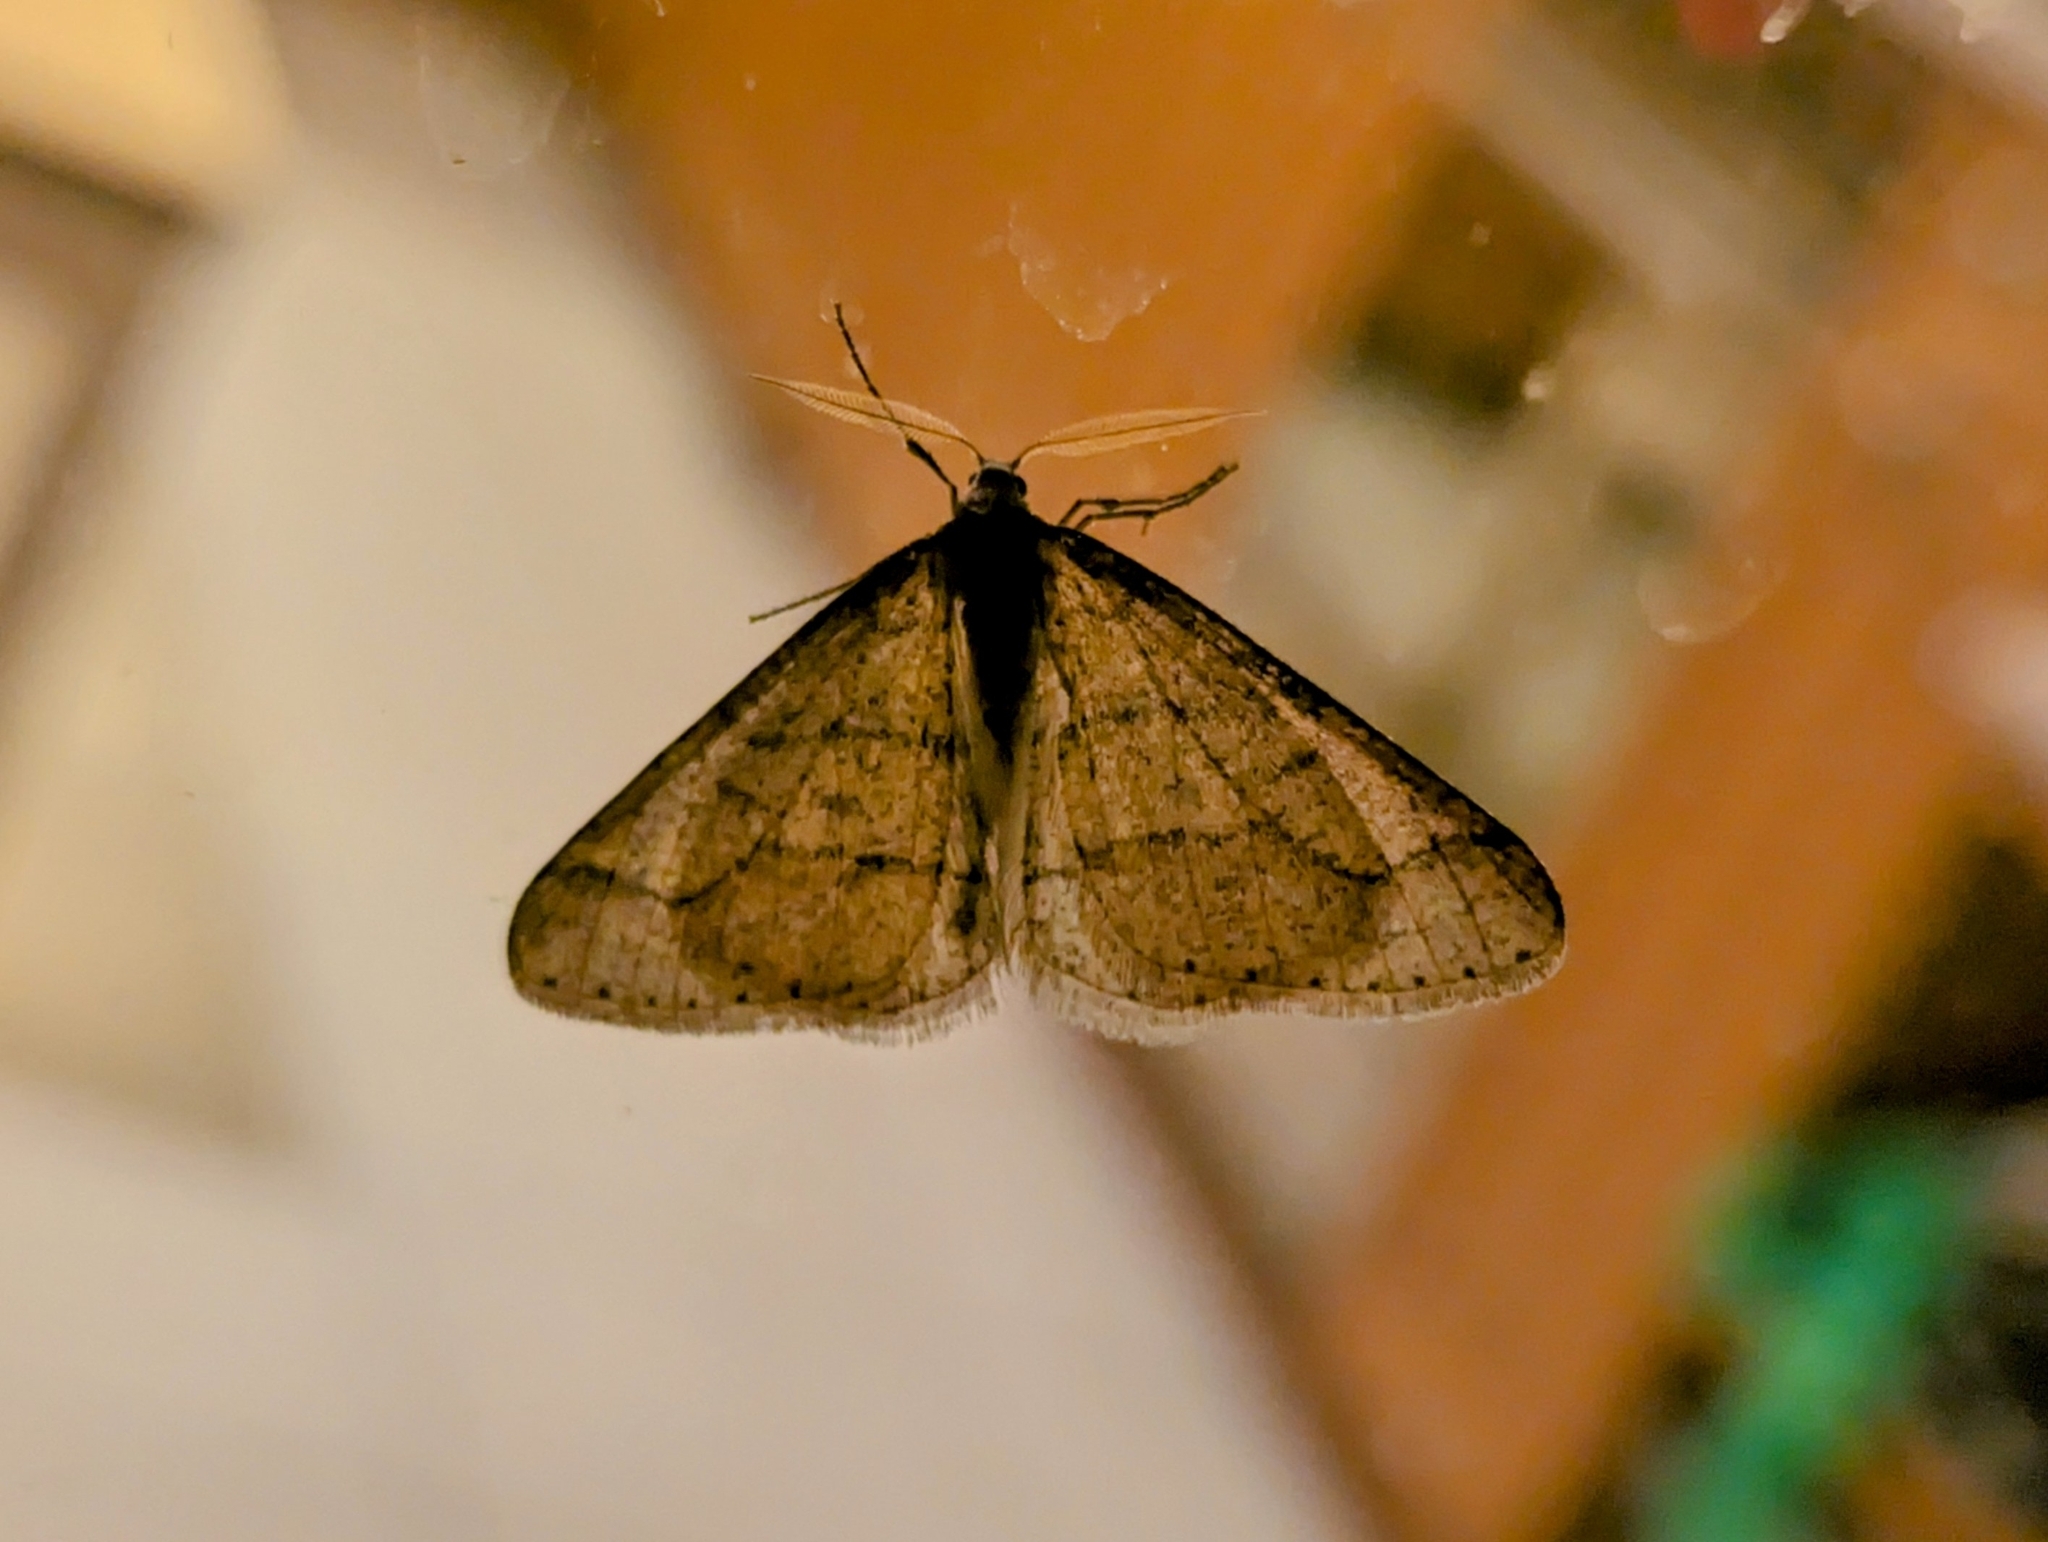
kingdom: Animalia
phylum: Arthropoda
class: Insecta
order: Lepidoptera
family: Geometridae
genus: Agriopis
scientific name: Agriopis marginaria
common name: Dotted border
